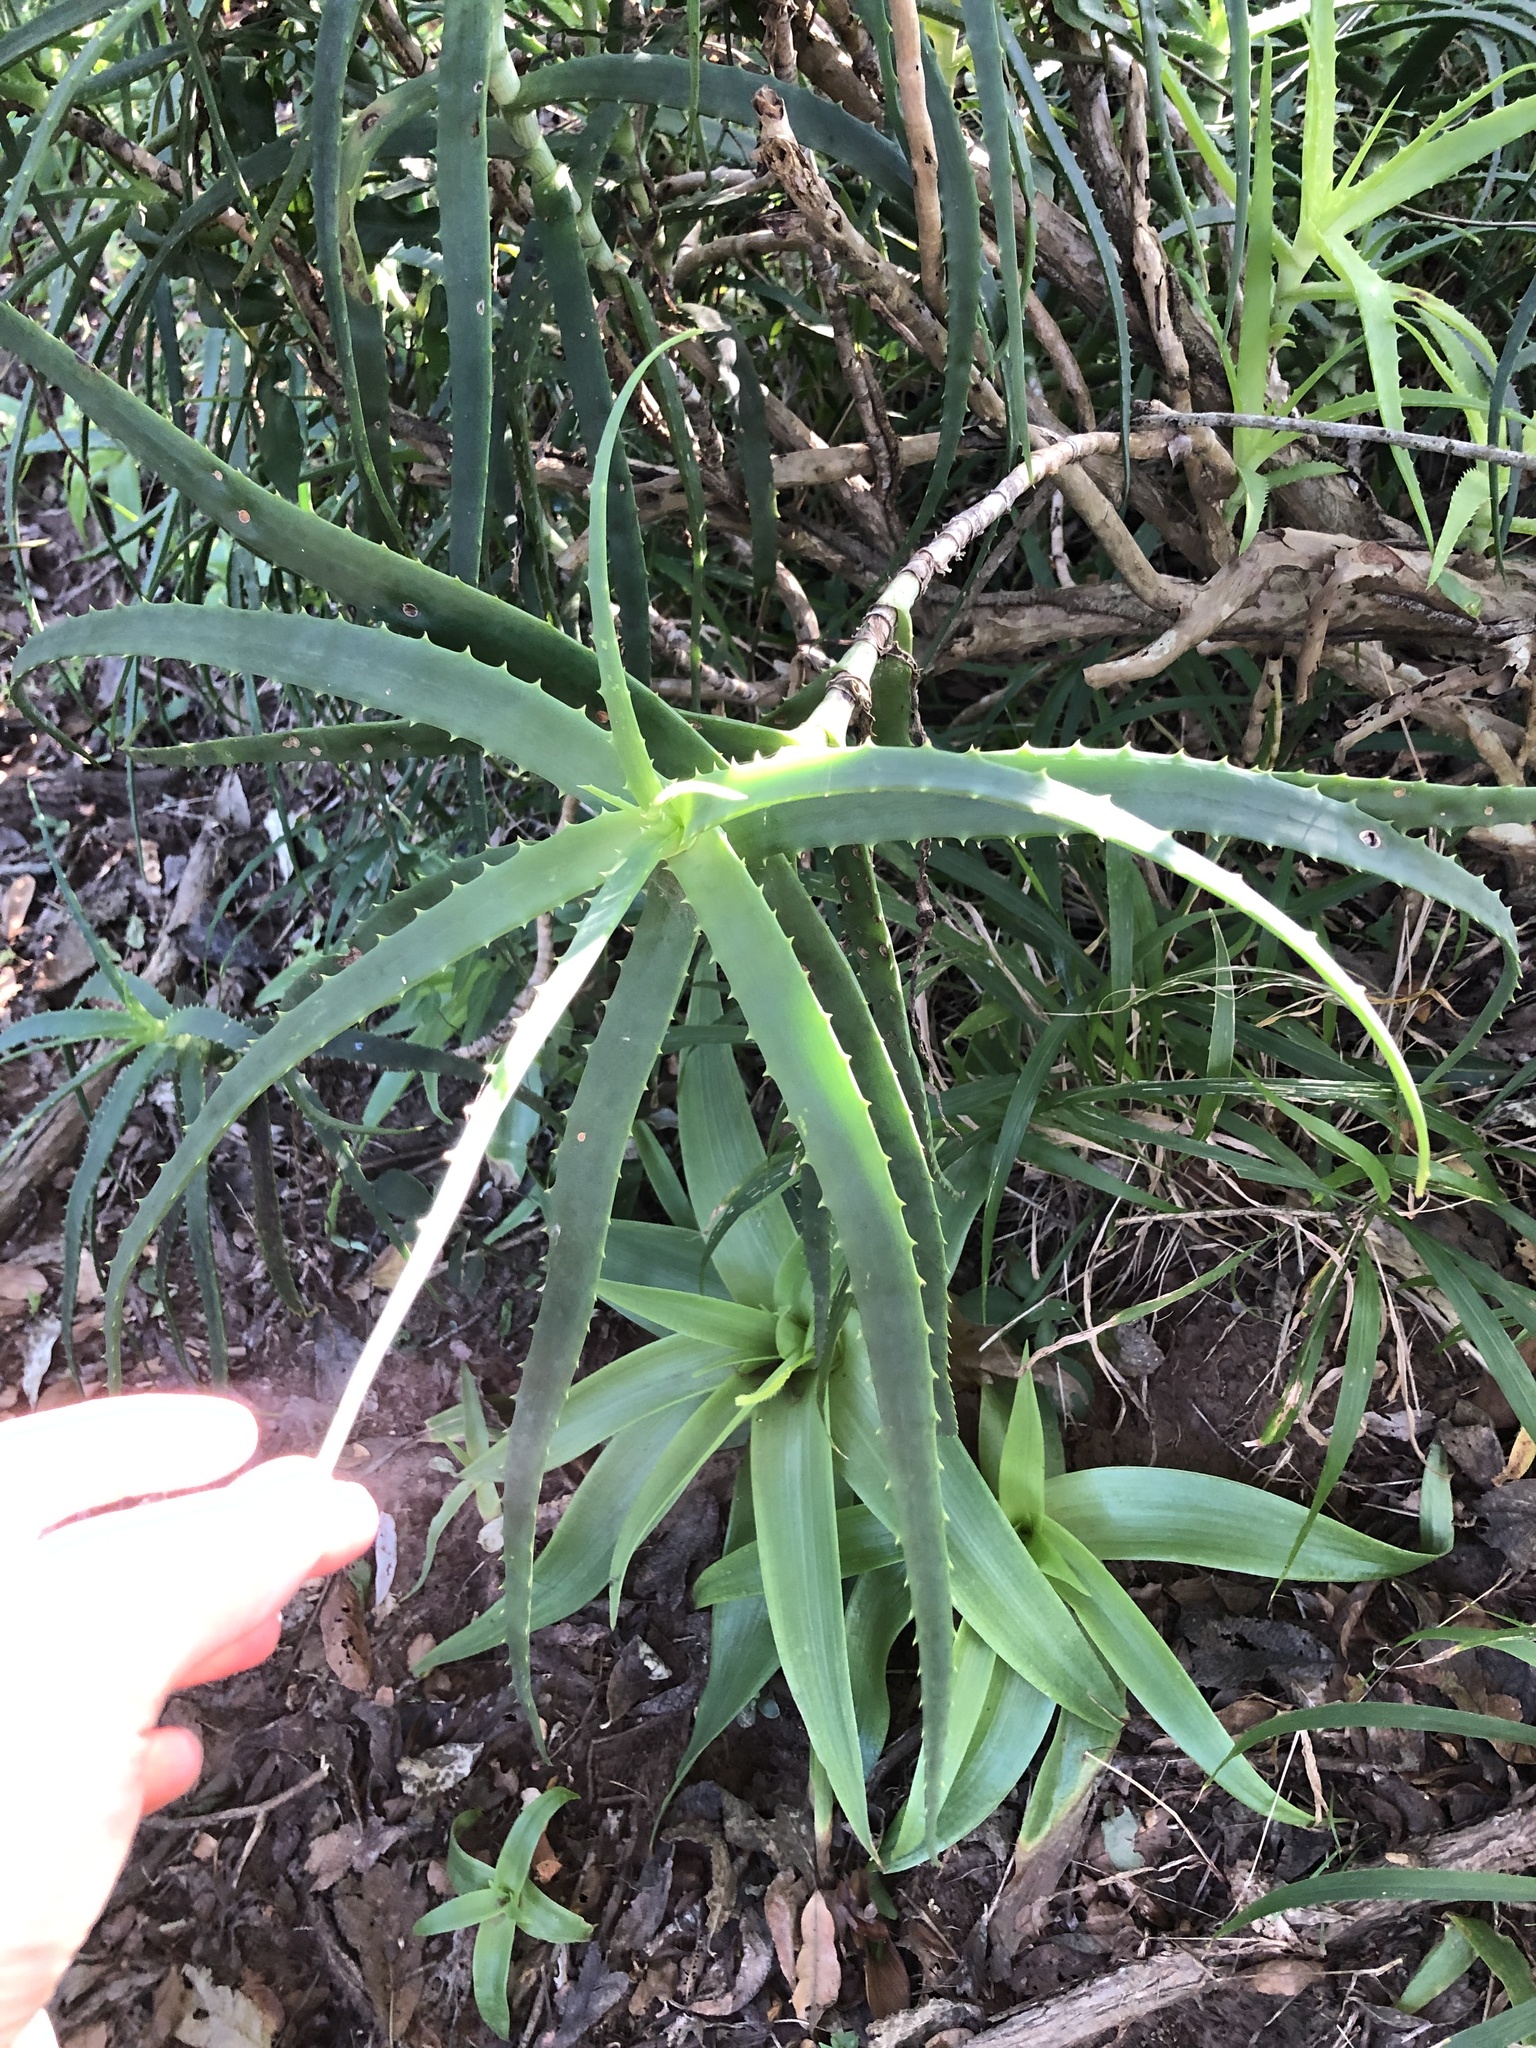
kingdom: Plantae
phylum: Tracheophyta
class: Liliopsida
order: Asparagales
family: Asphodelaceae
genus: Aloe
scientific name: Aloe arborescens
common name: Candelabra aloe
